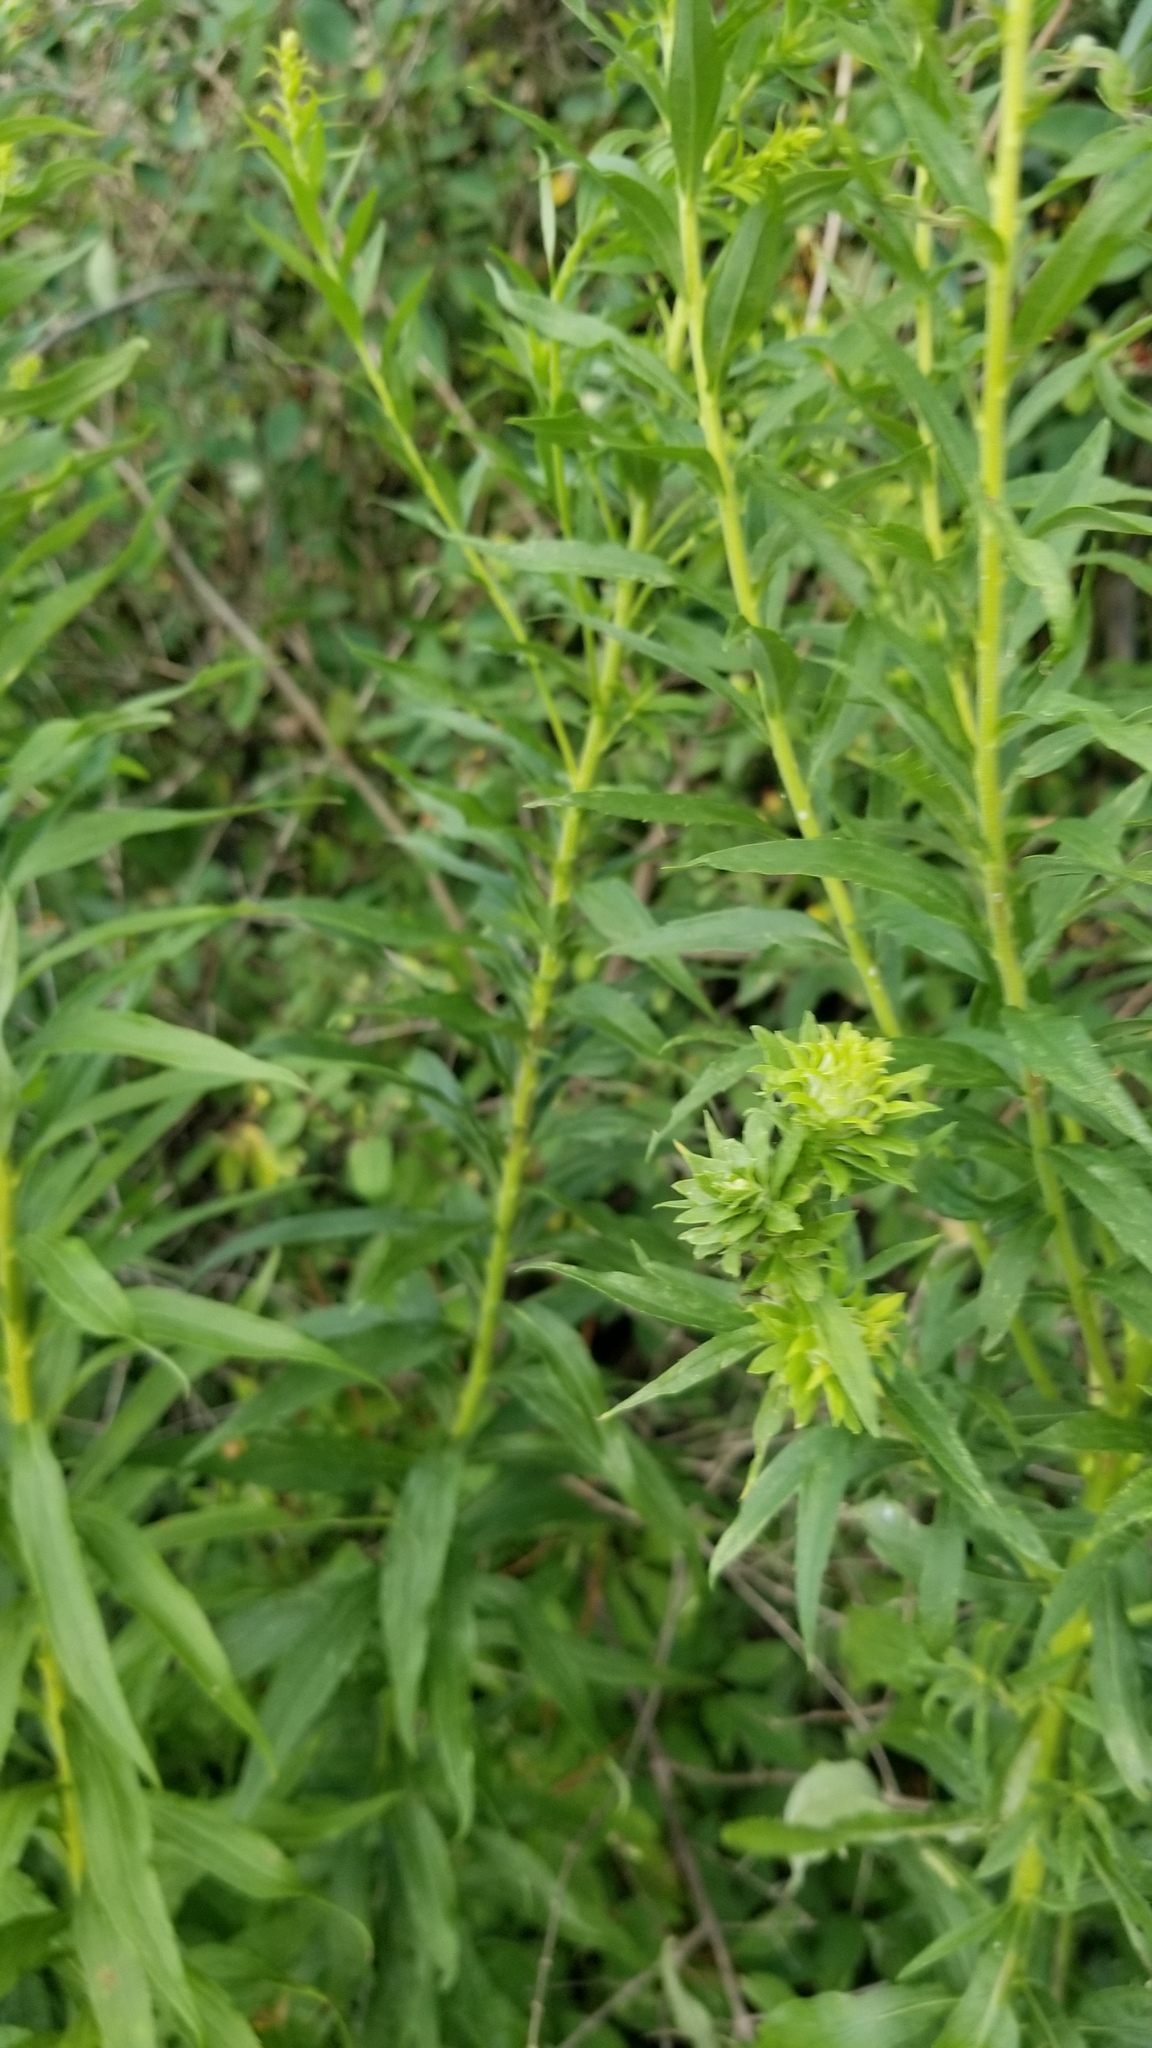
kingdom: Animalia
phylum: Arthropoda
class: Insecta
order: Diptera
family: Tephritidae
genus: Procecidochares
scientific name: Procecidochares atra
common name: Goldenrod brussels sprout gall fly
